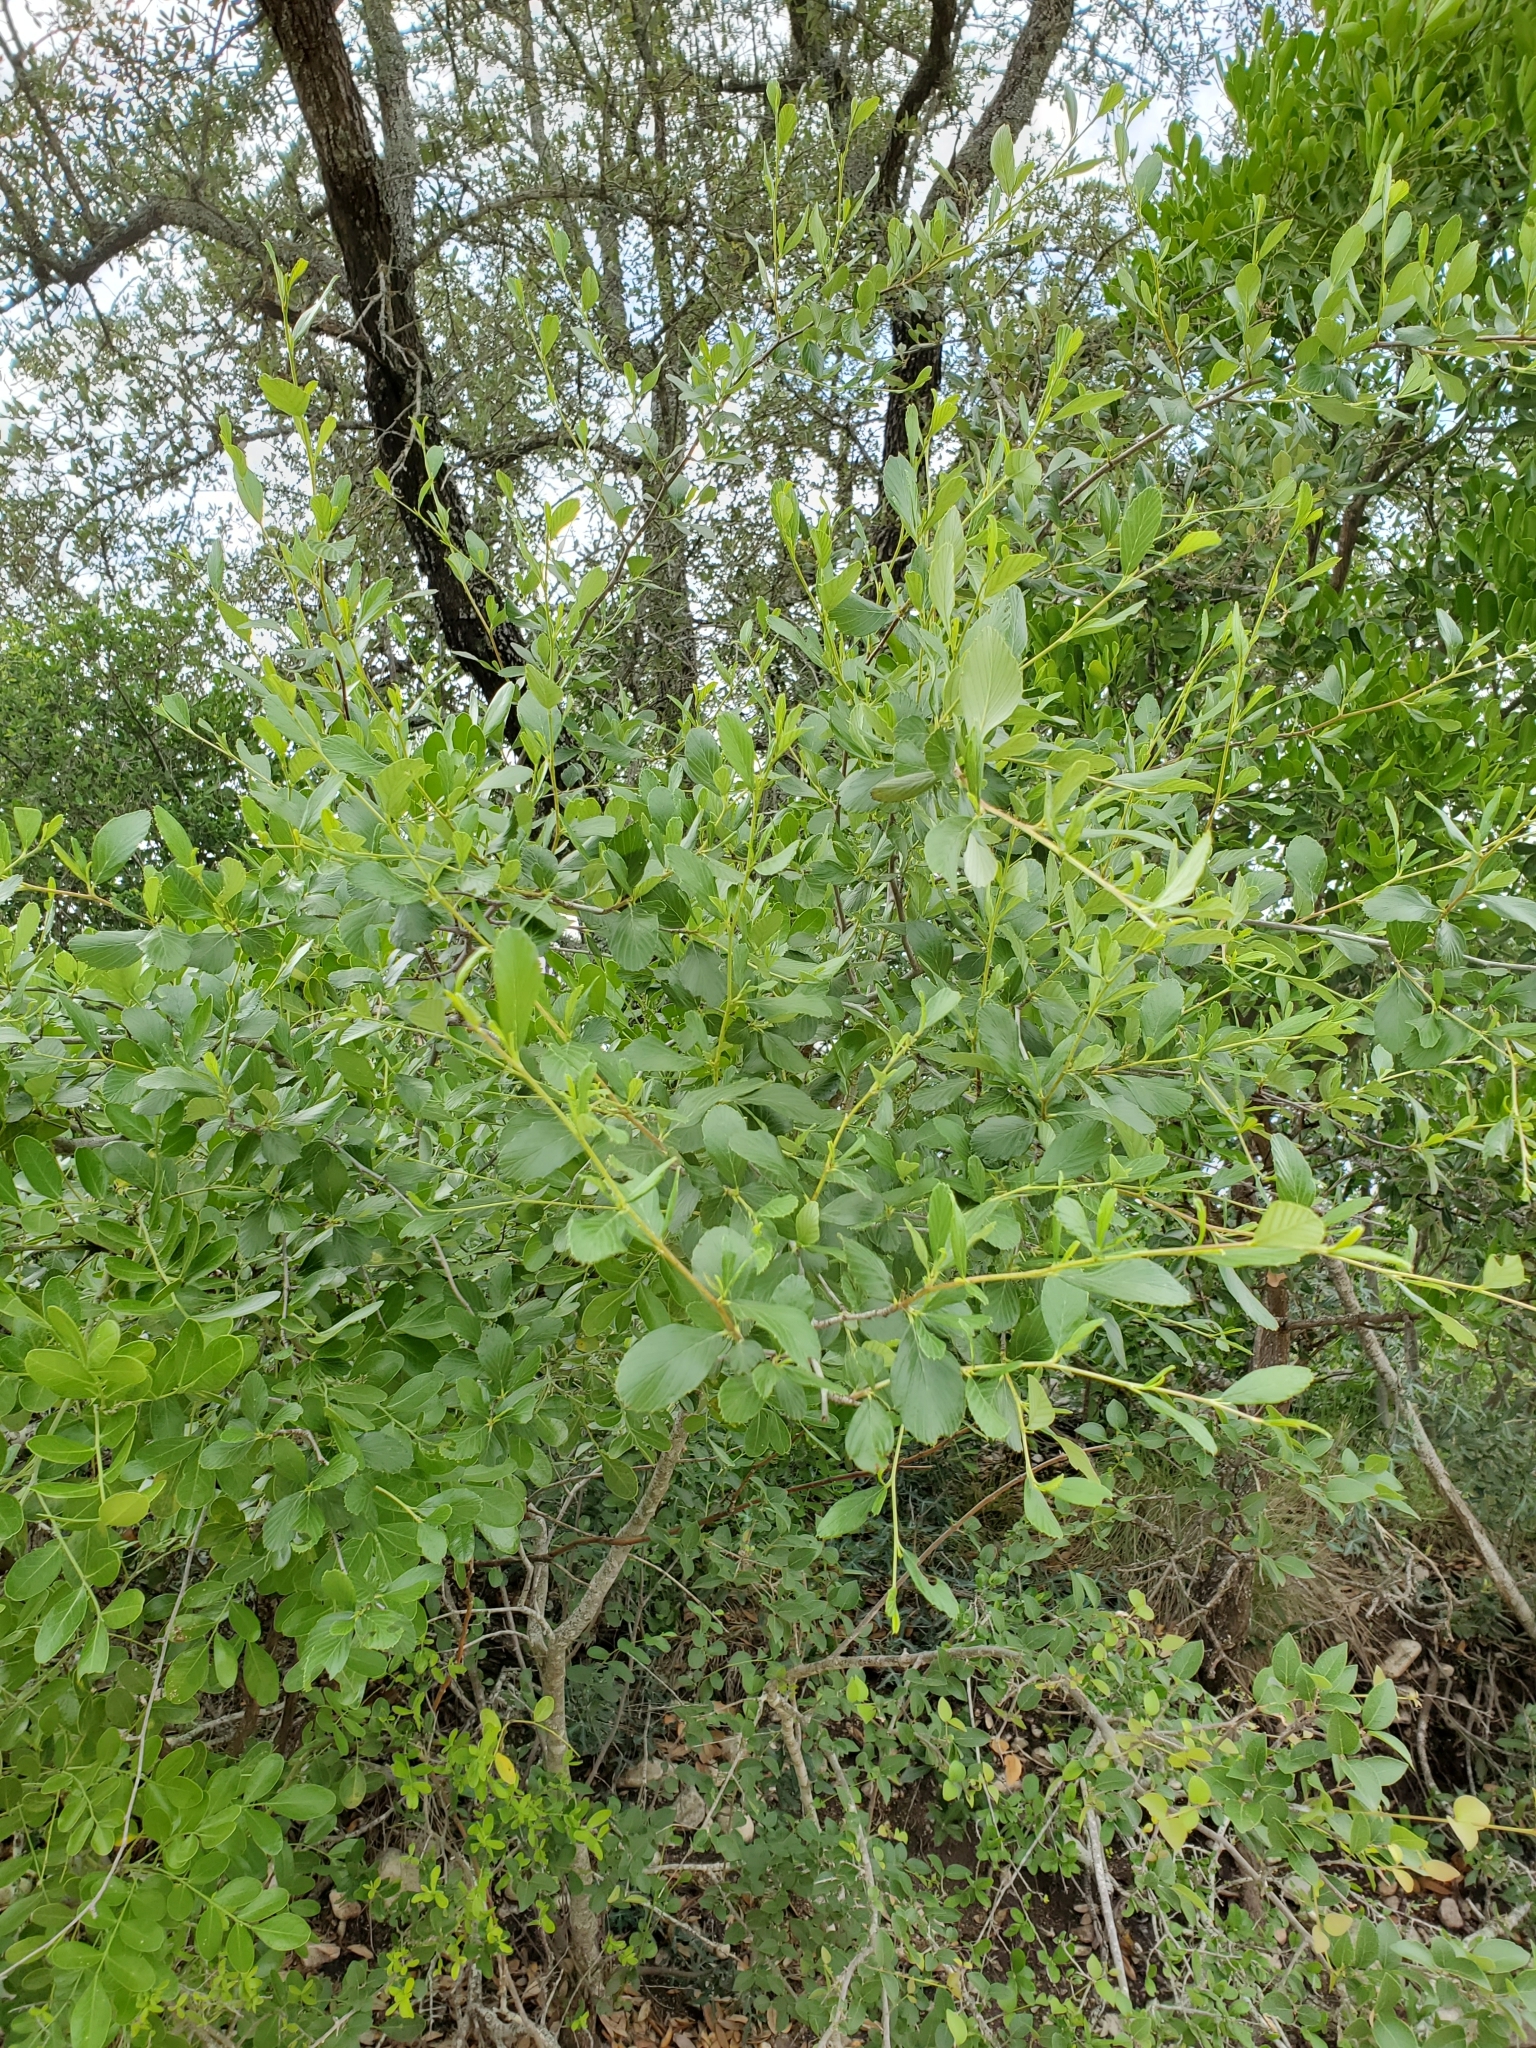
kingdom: Plantae
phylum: Tracheophyta
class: Magnoliopsida
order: Rosales
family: Rosaceae
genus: Cercocarpus
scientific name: Cercocarpus montanus
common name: Alder-leaf cercocarpus
